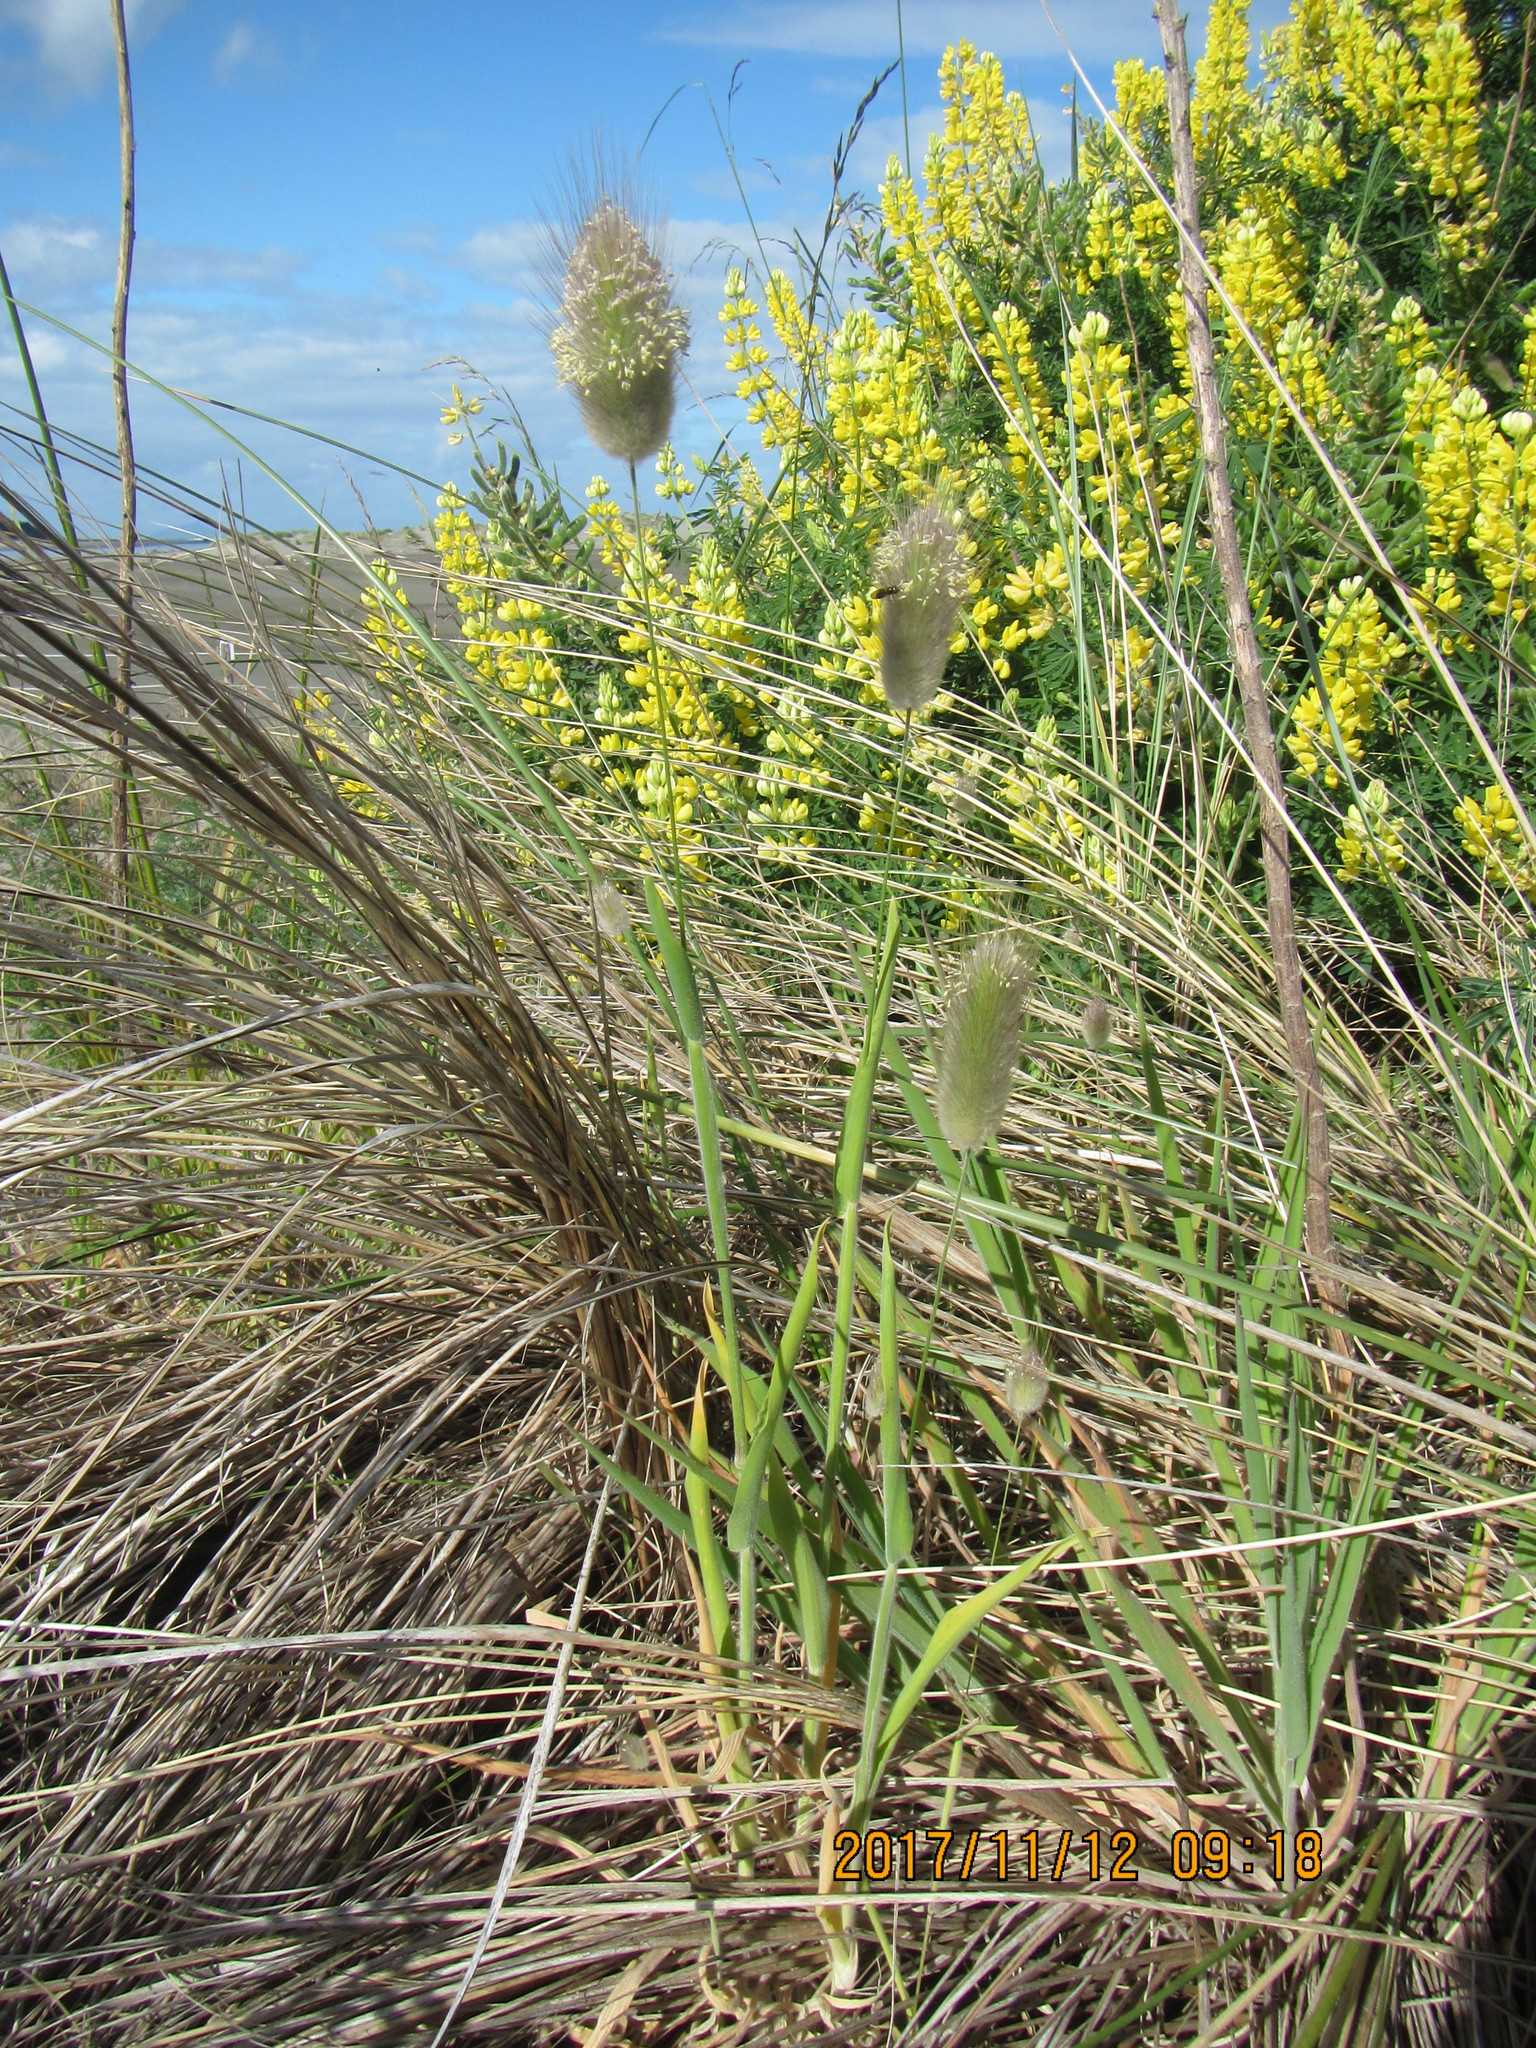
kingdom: Plantae
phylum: Tracheophyta
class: Liliopsida
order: Poales
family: Poaceae
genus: Lagurus
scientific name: Lagurus ovatus
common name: Hare's-tail
